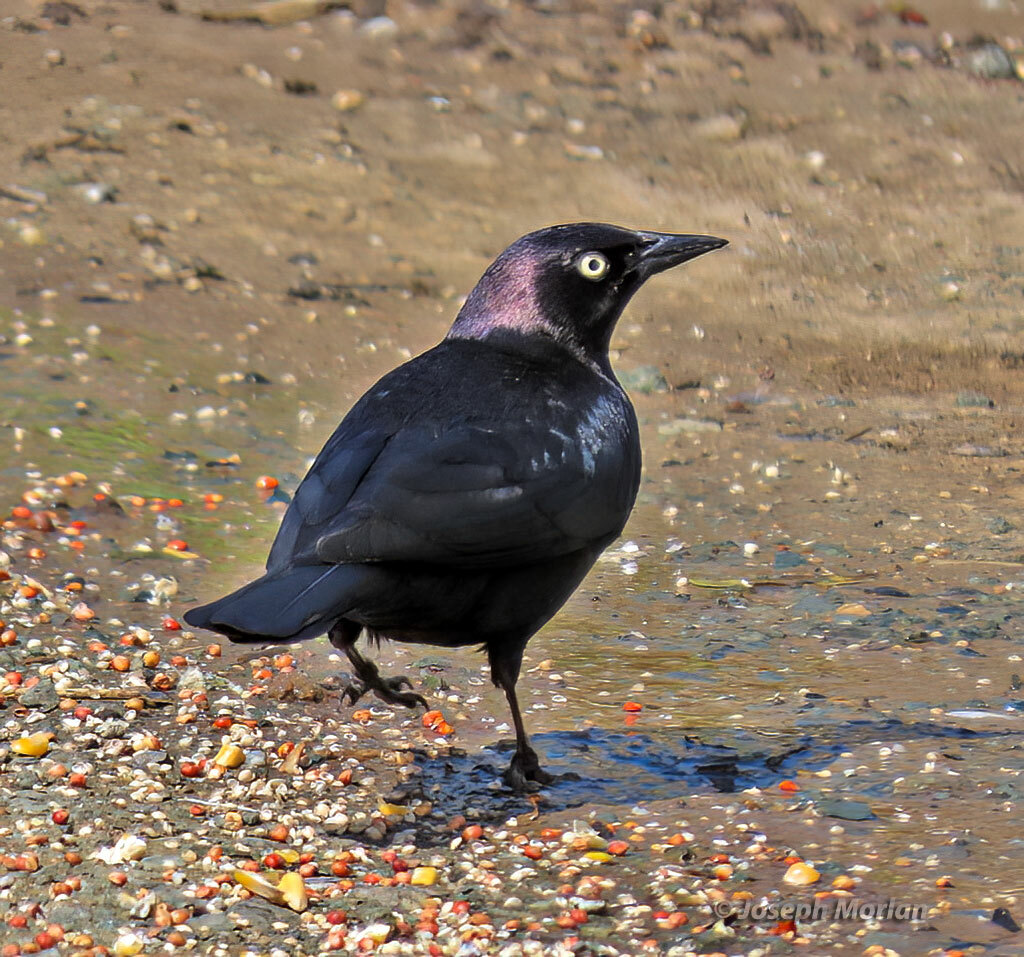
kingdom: Animalia
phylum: Chordata
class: Aves
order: Passeriformes
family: Icteridae
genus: Euphagus
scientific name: Euphagus cyanocephalus
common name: Brewer's blackbird
